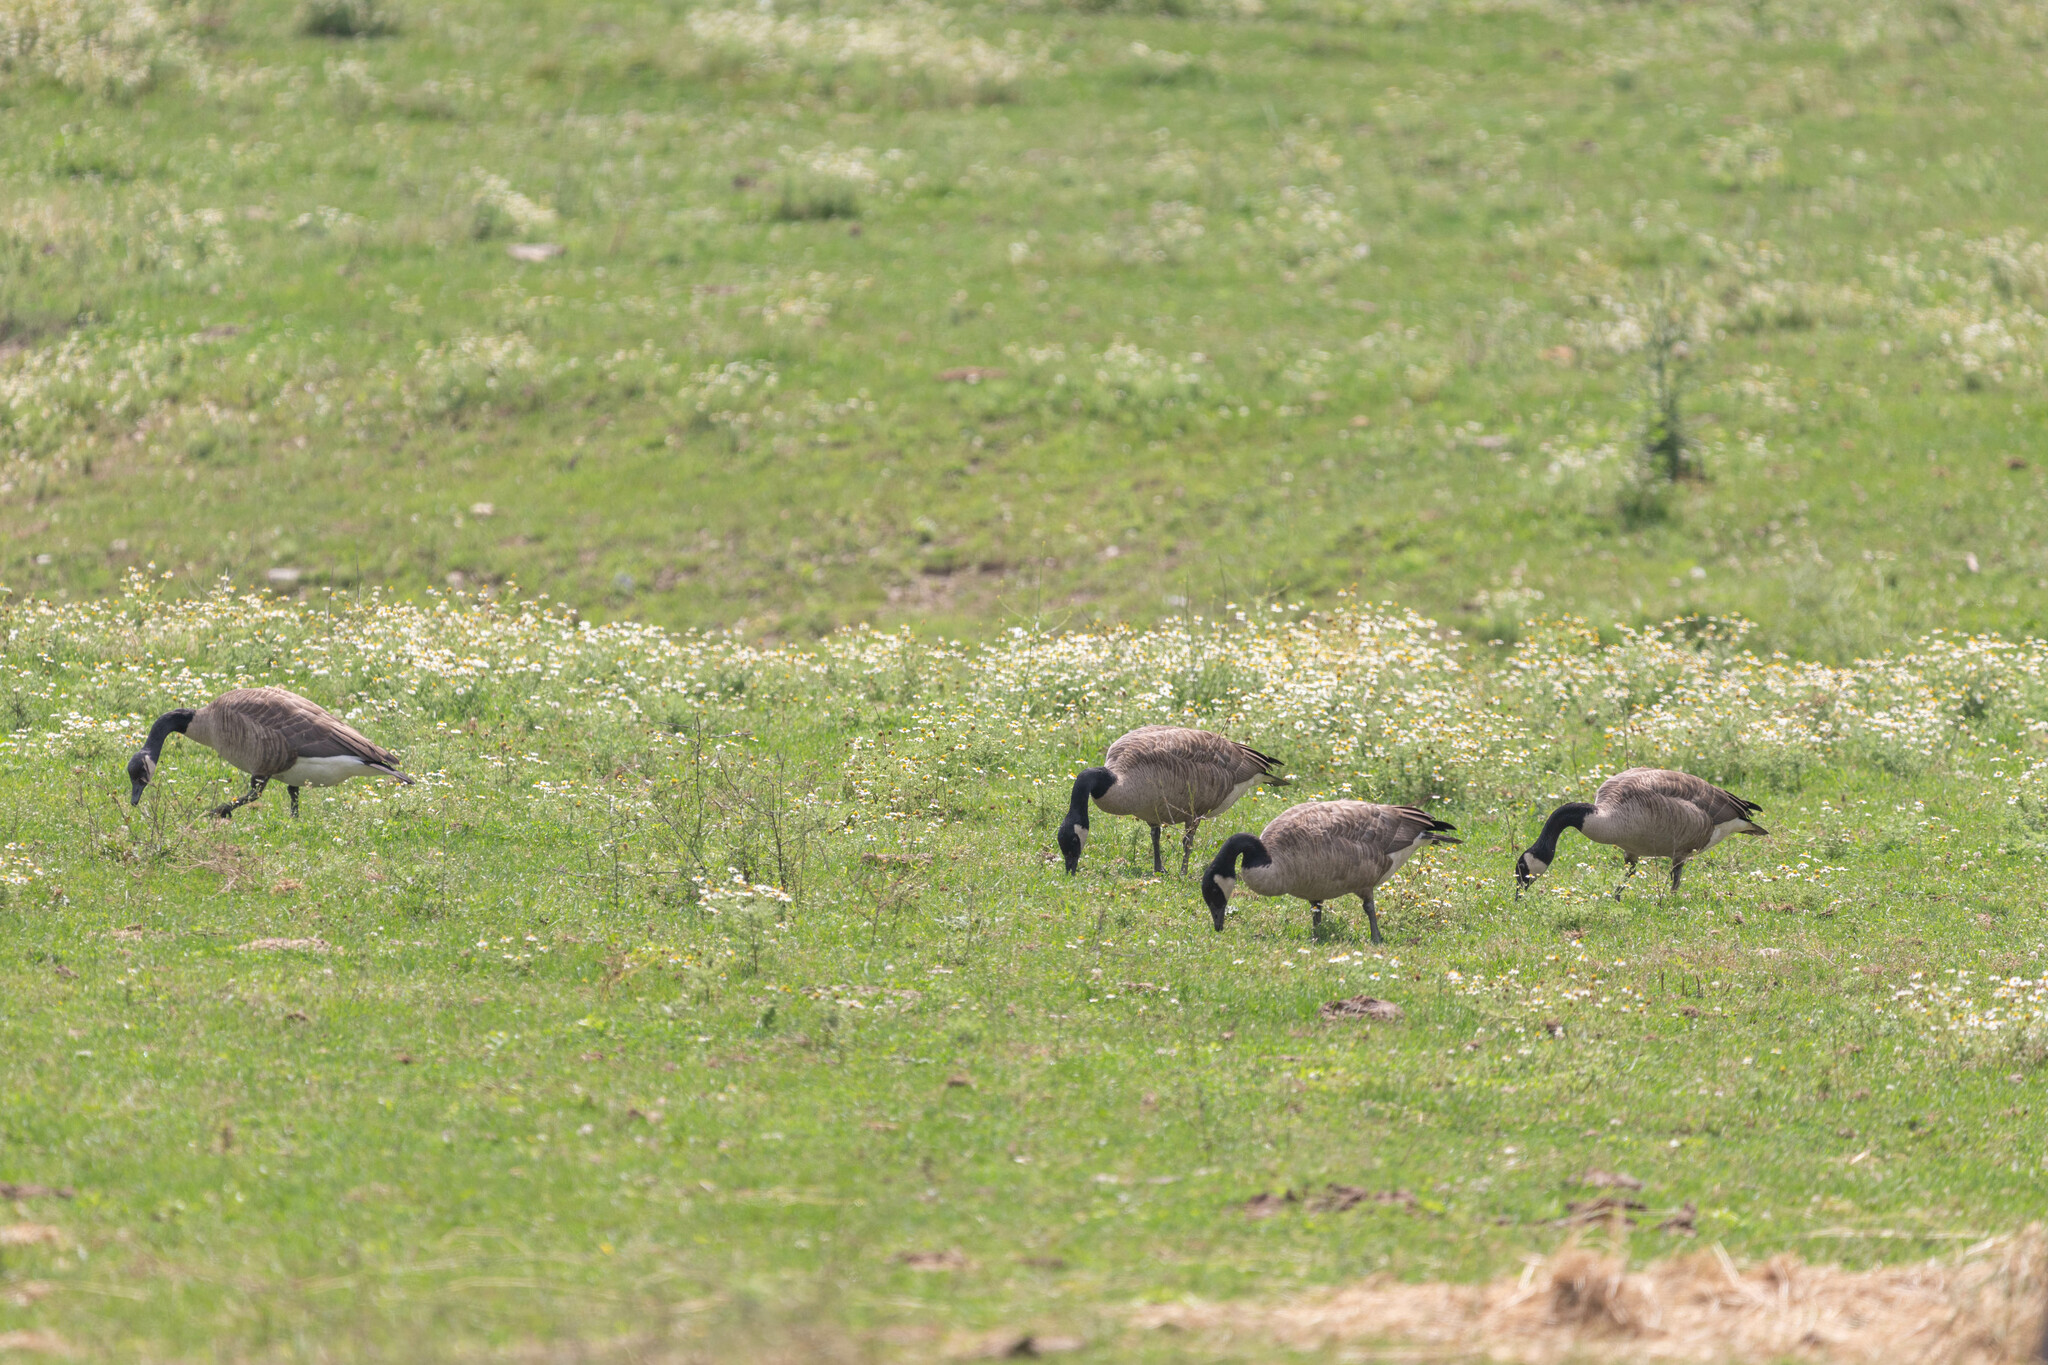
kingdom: Animalia
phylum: Chordata
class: Aves
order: Anseriformes
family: Anatidae
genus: Branta
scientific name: Branta canadensis
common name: Canada goose
